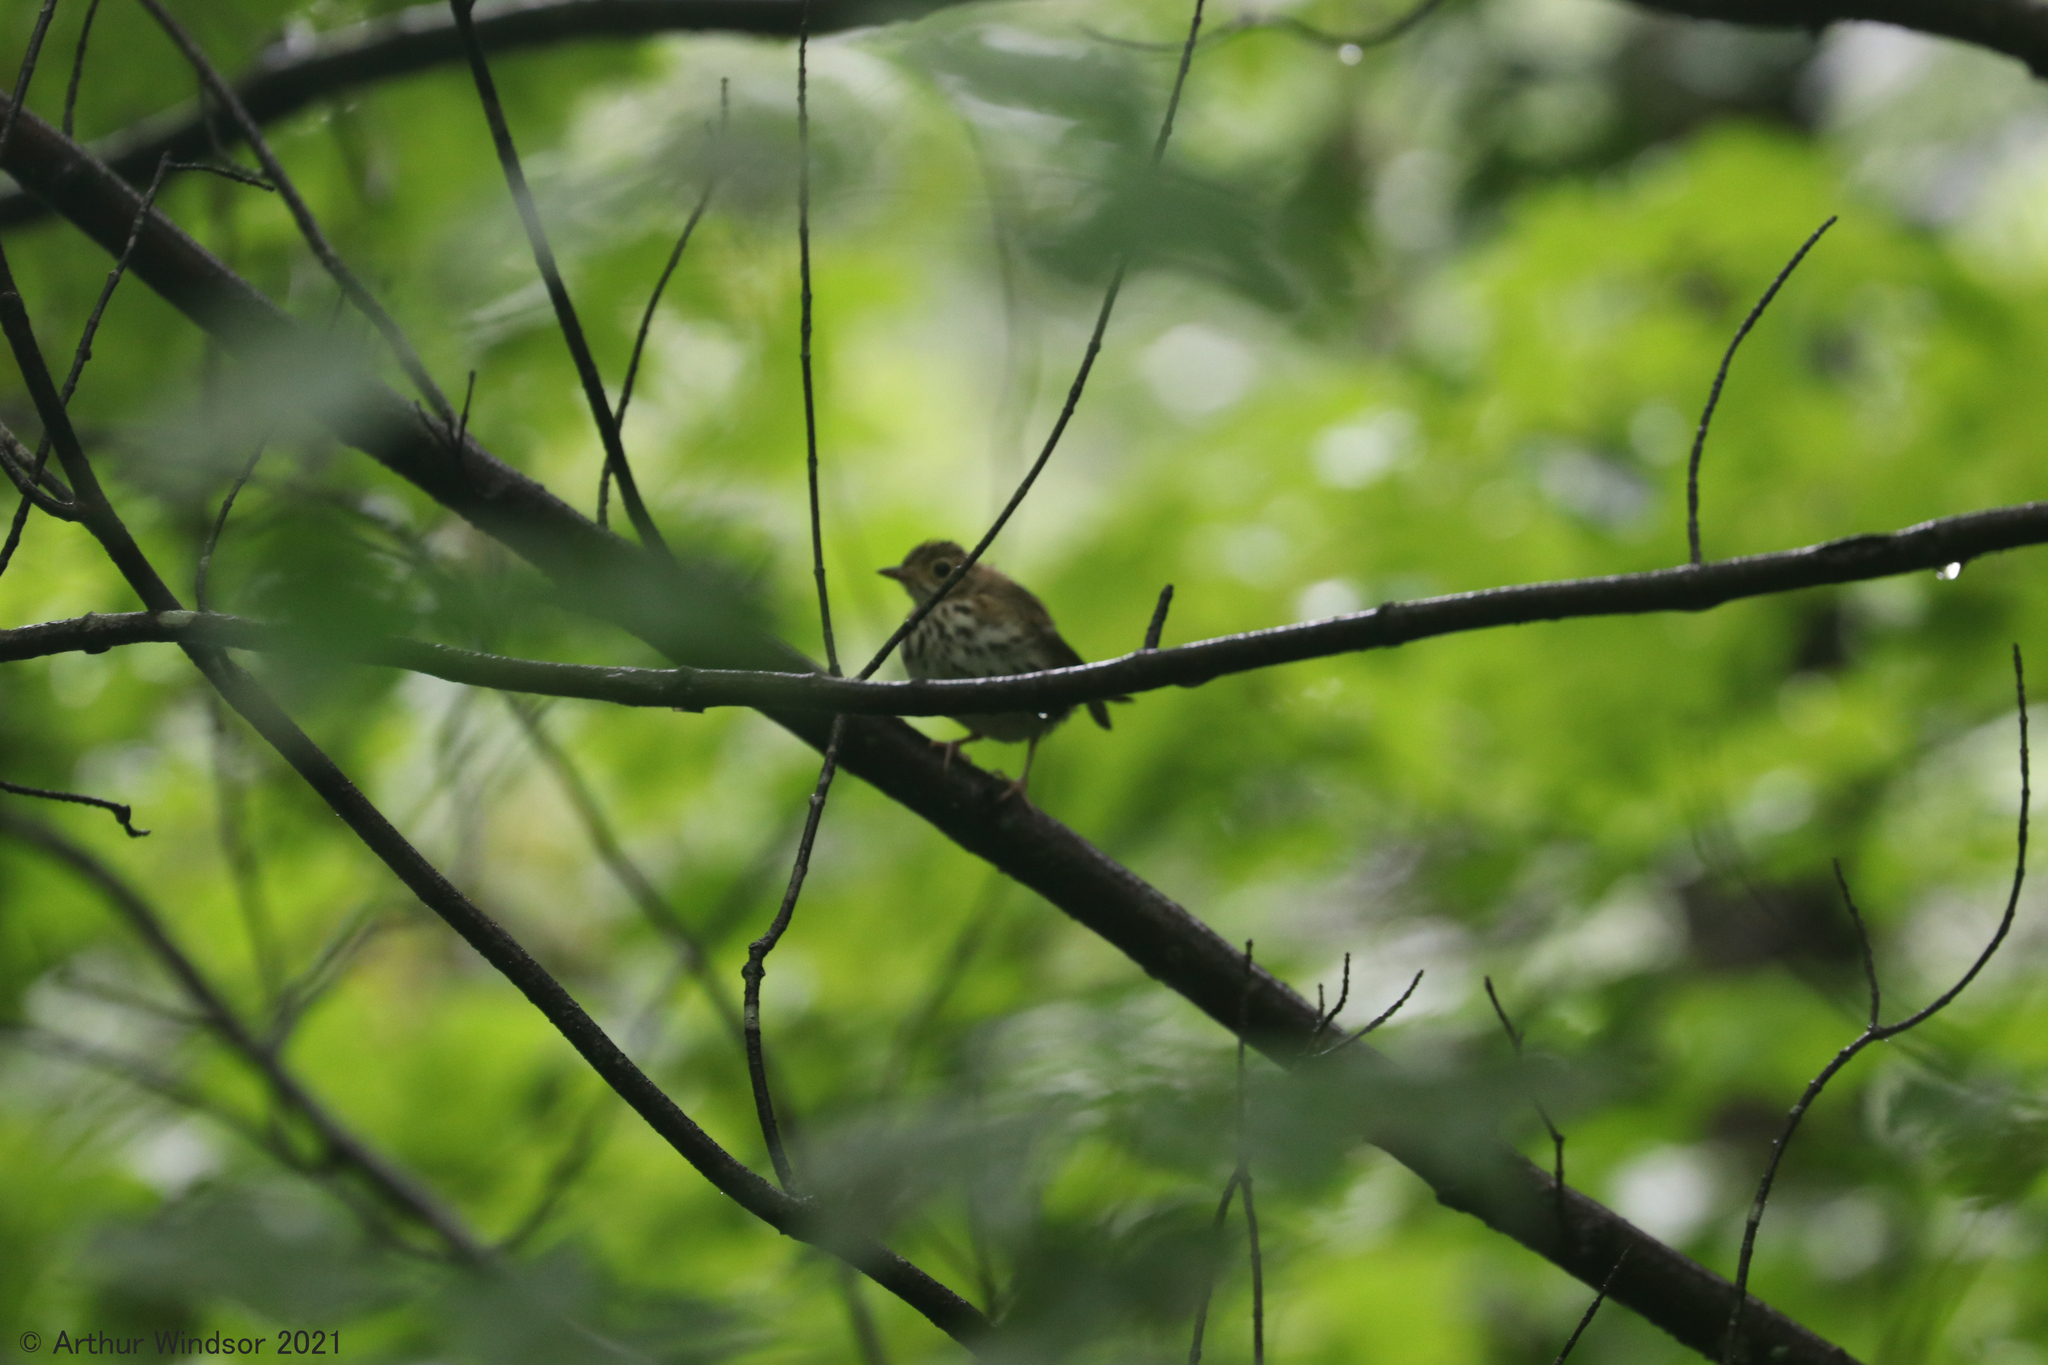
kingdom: Animalia
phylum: Chordata
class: Aves
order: Passeriformes
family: Parulidae
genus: Seiurus
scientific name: Seiurus aurocapilla
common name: Ovenbird
